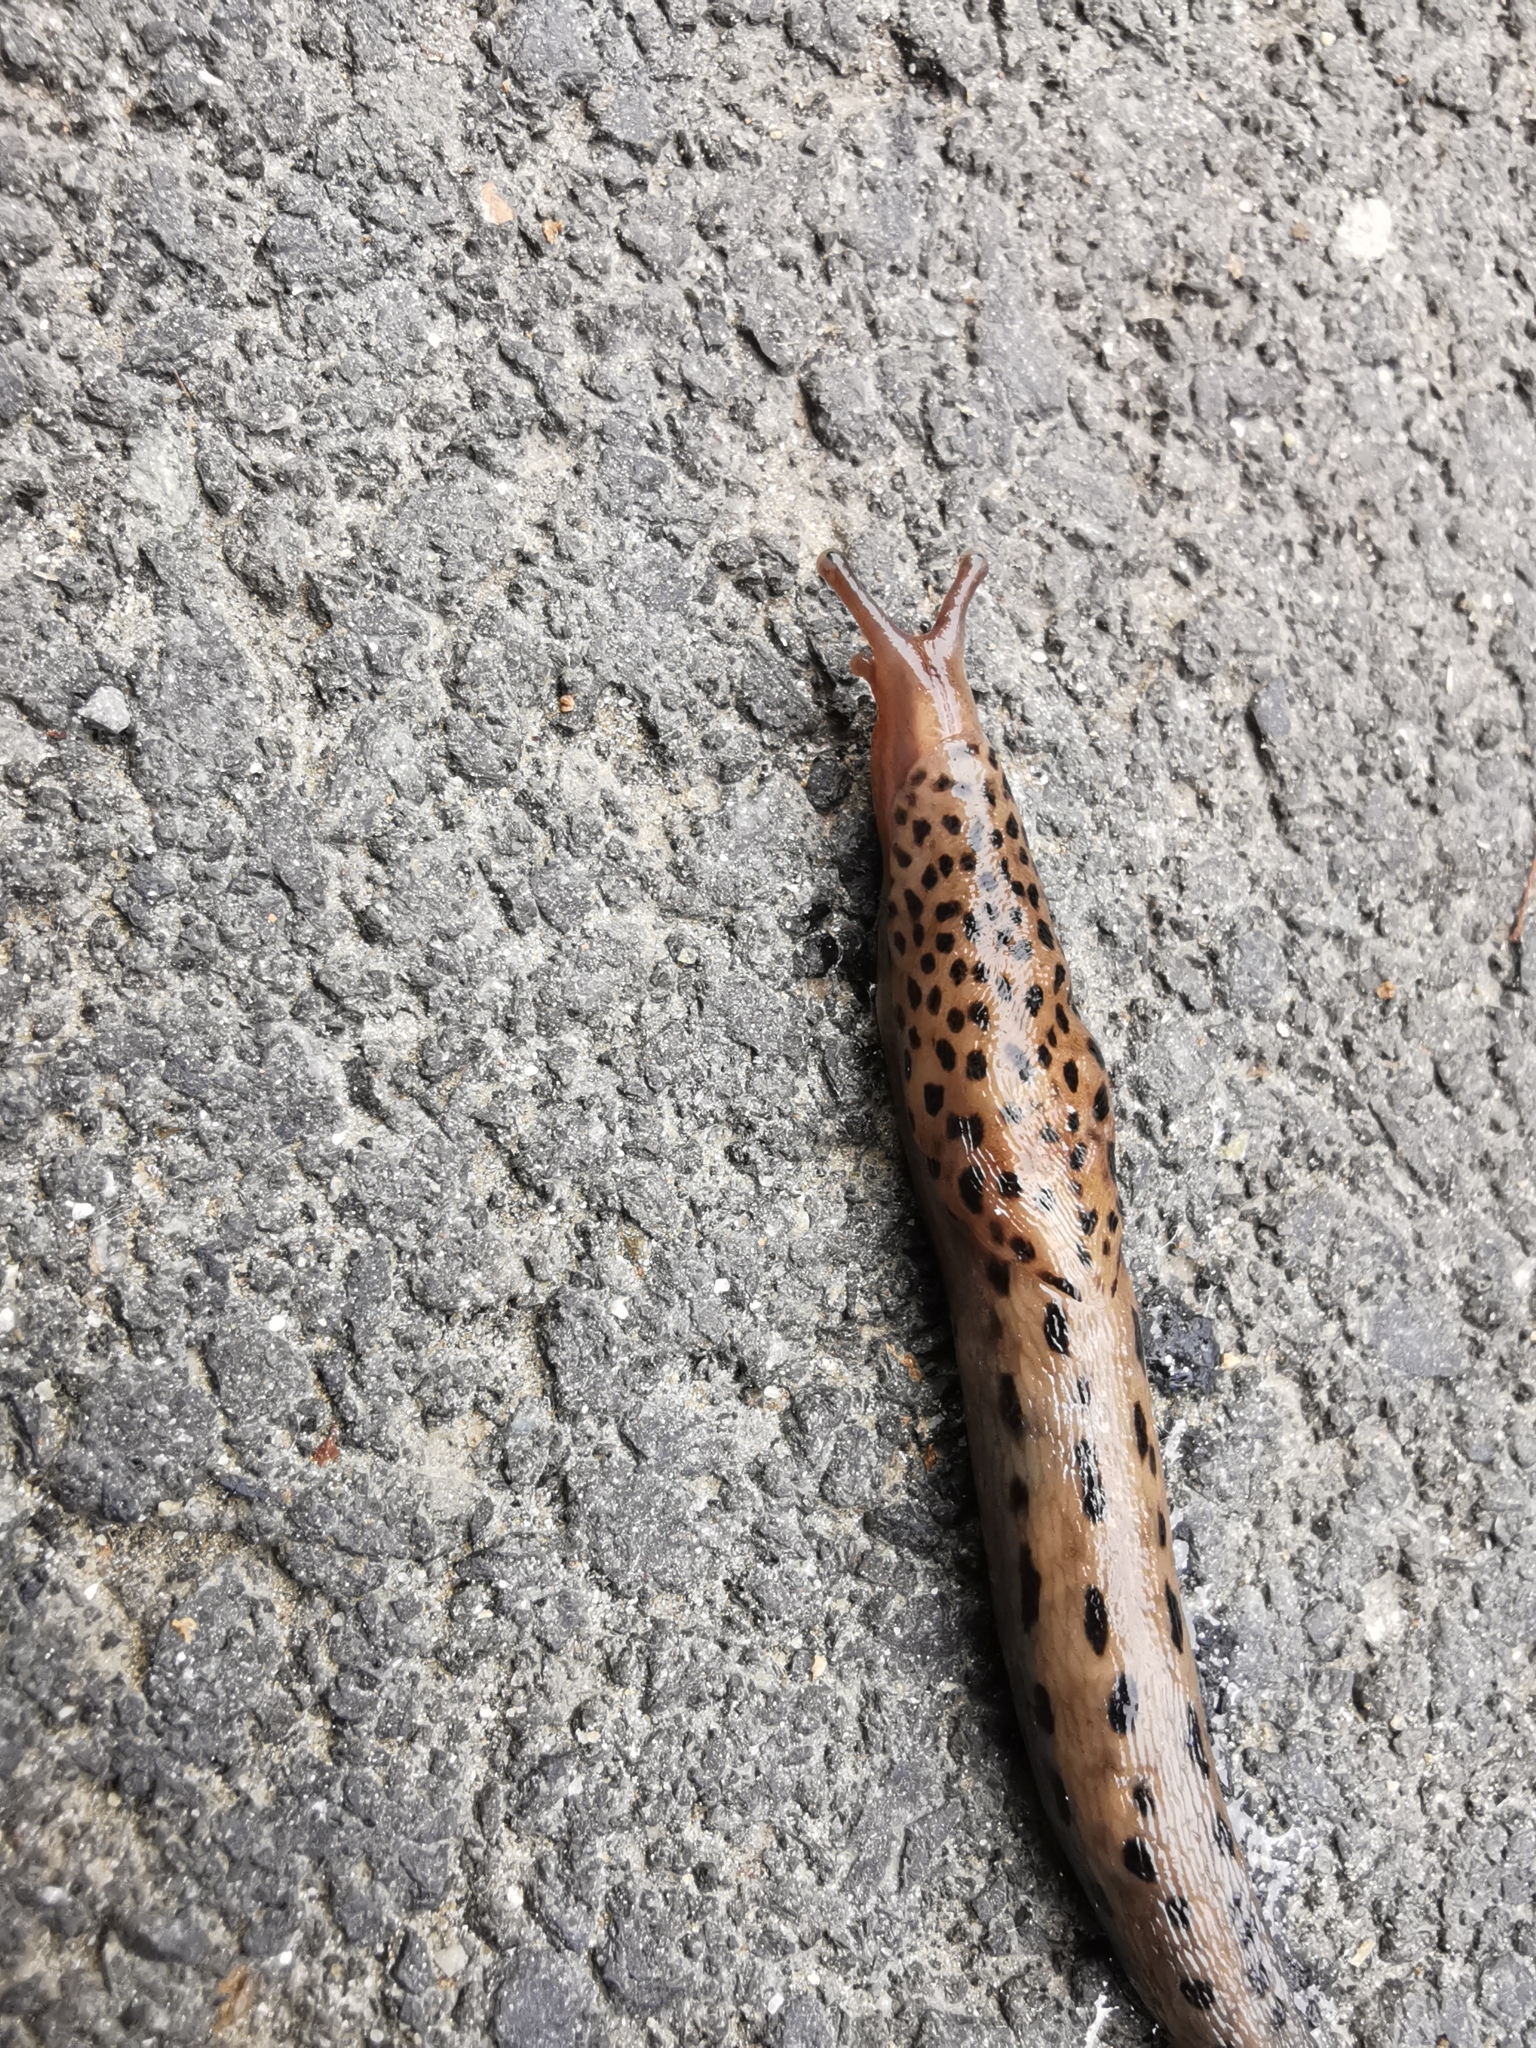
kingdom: Animalia
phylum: Mollusca
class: Gastropoda
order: Stylommatophora
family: Limacidae
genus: Limax
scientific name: Limax maximus
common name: Great grey slug
